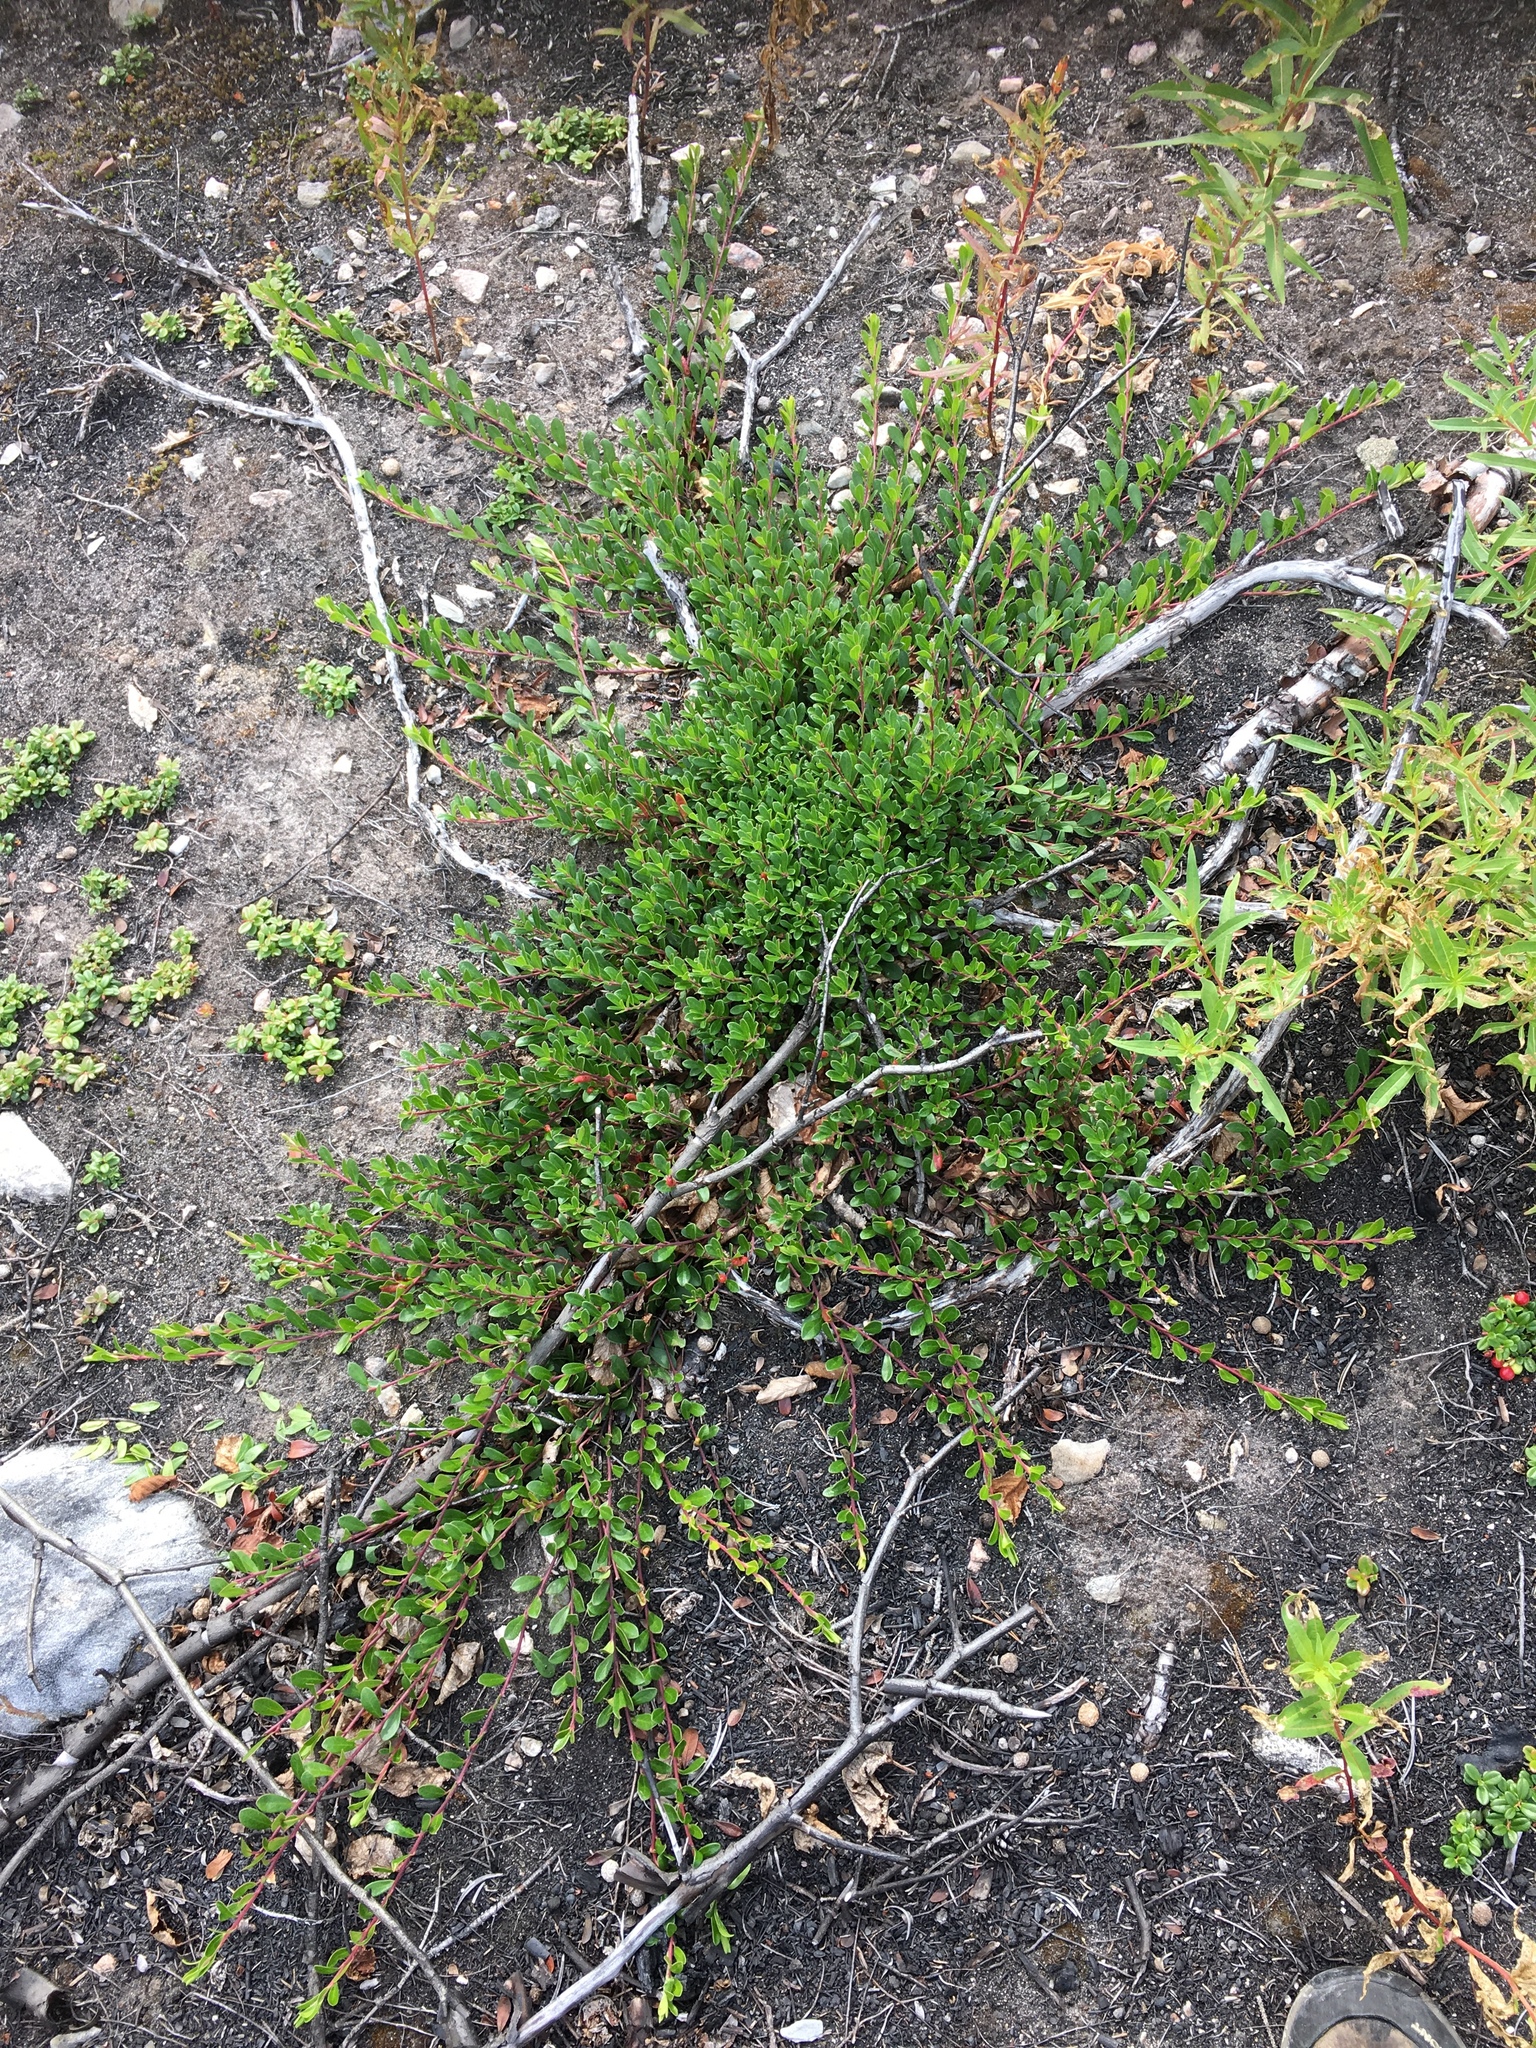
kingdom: Plantae
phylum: Tracheophyta
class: Magnoliopsida
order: Ericales
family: Ericaceae
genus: Arctostaphylos
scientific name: Arctostaphylos uva-ursi
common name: Bearberry
